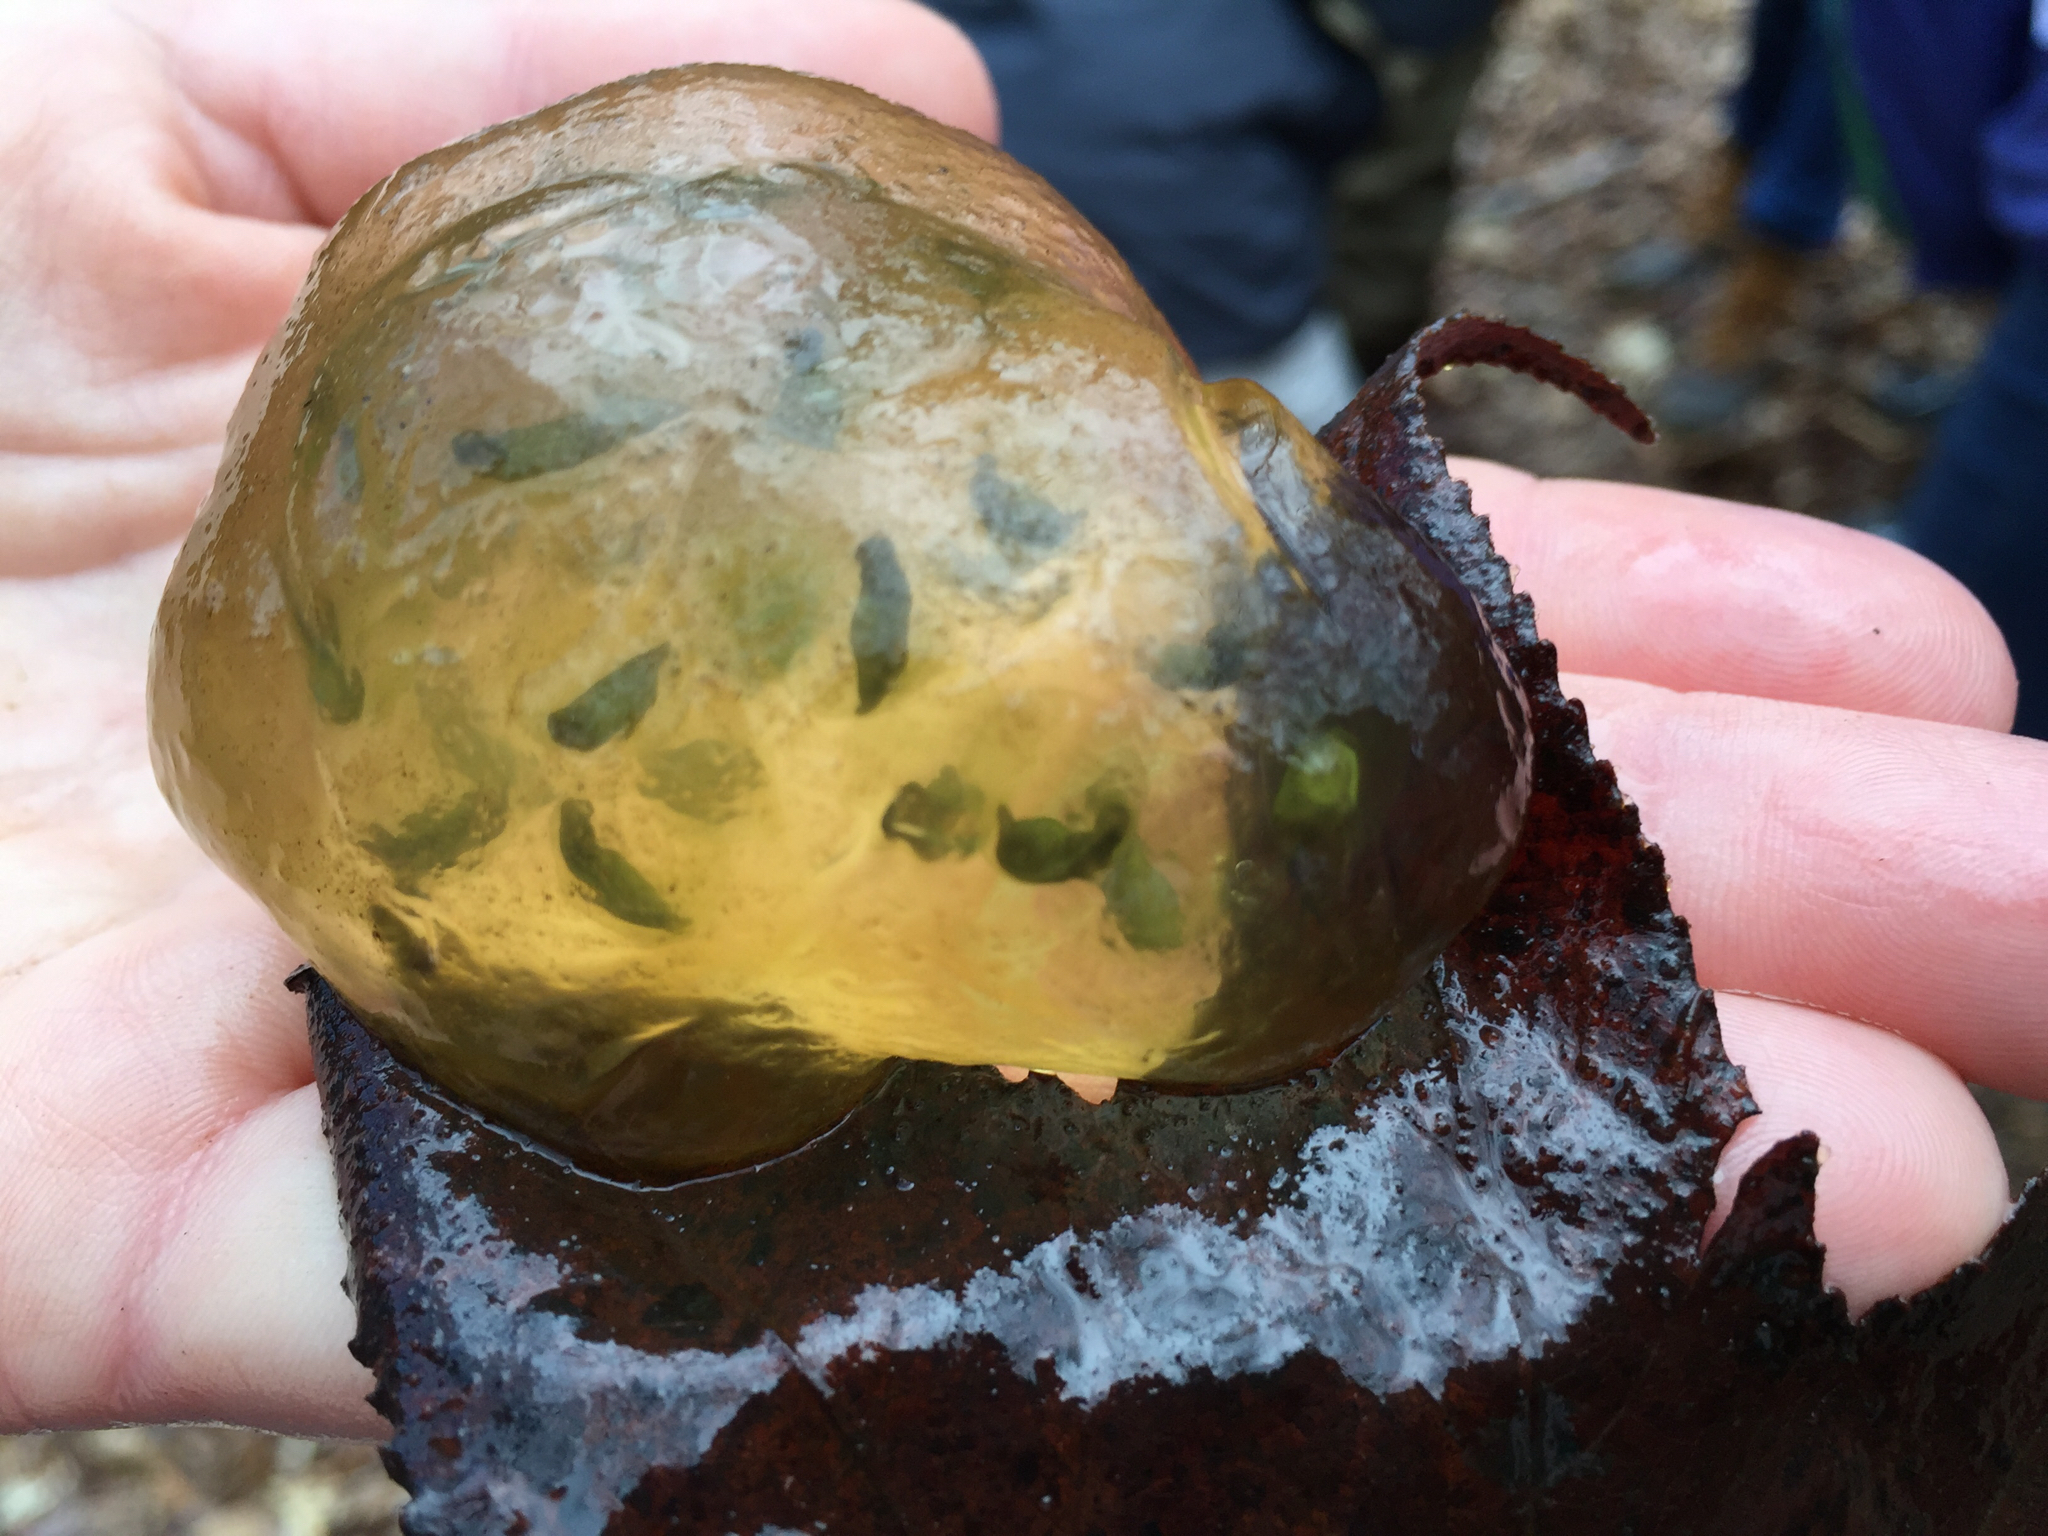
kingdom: Animalia
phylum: Chordata
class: Amphibia
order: Caudata
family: Ambystomatidae
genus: Ambystoma
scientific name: Ambystoma maculatum
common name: Spotted salamander
